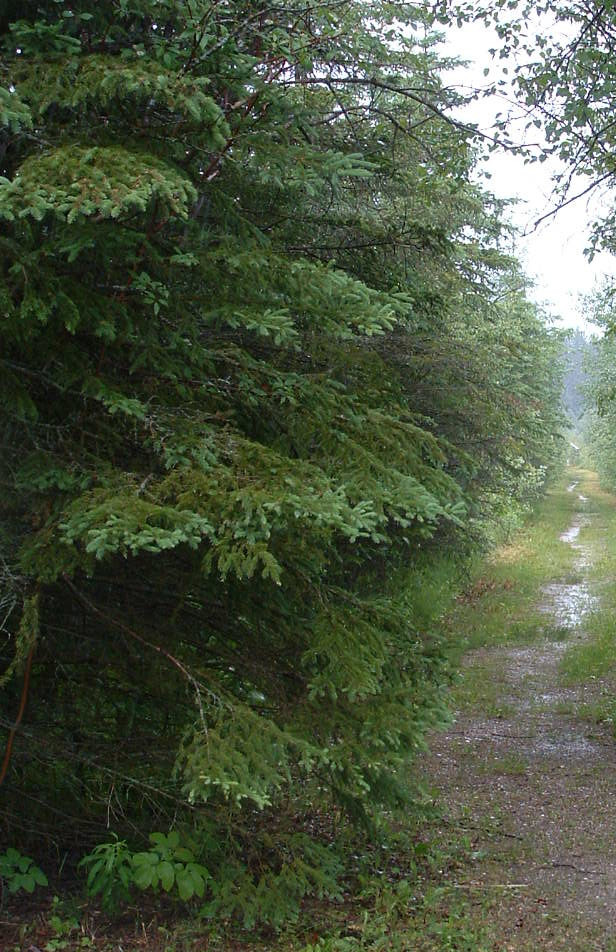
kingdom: Plantae
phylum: Tracheophyta
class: Pinopsida
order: Pinales
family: Pinaceae
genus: Picea
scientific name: Picea glauca
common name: White spruce
